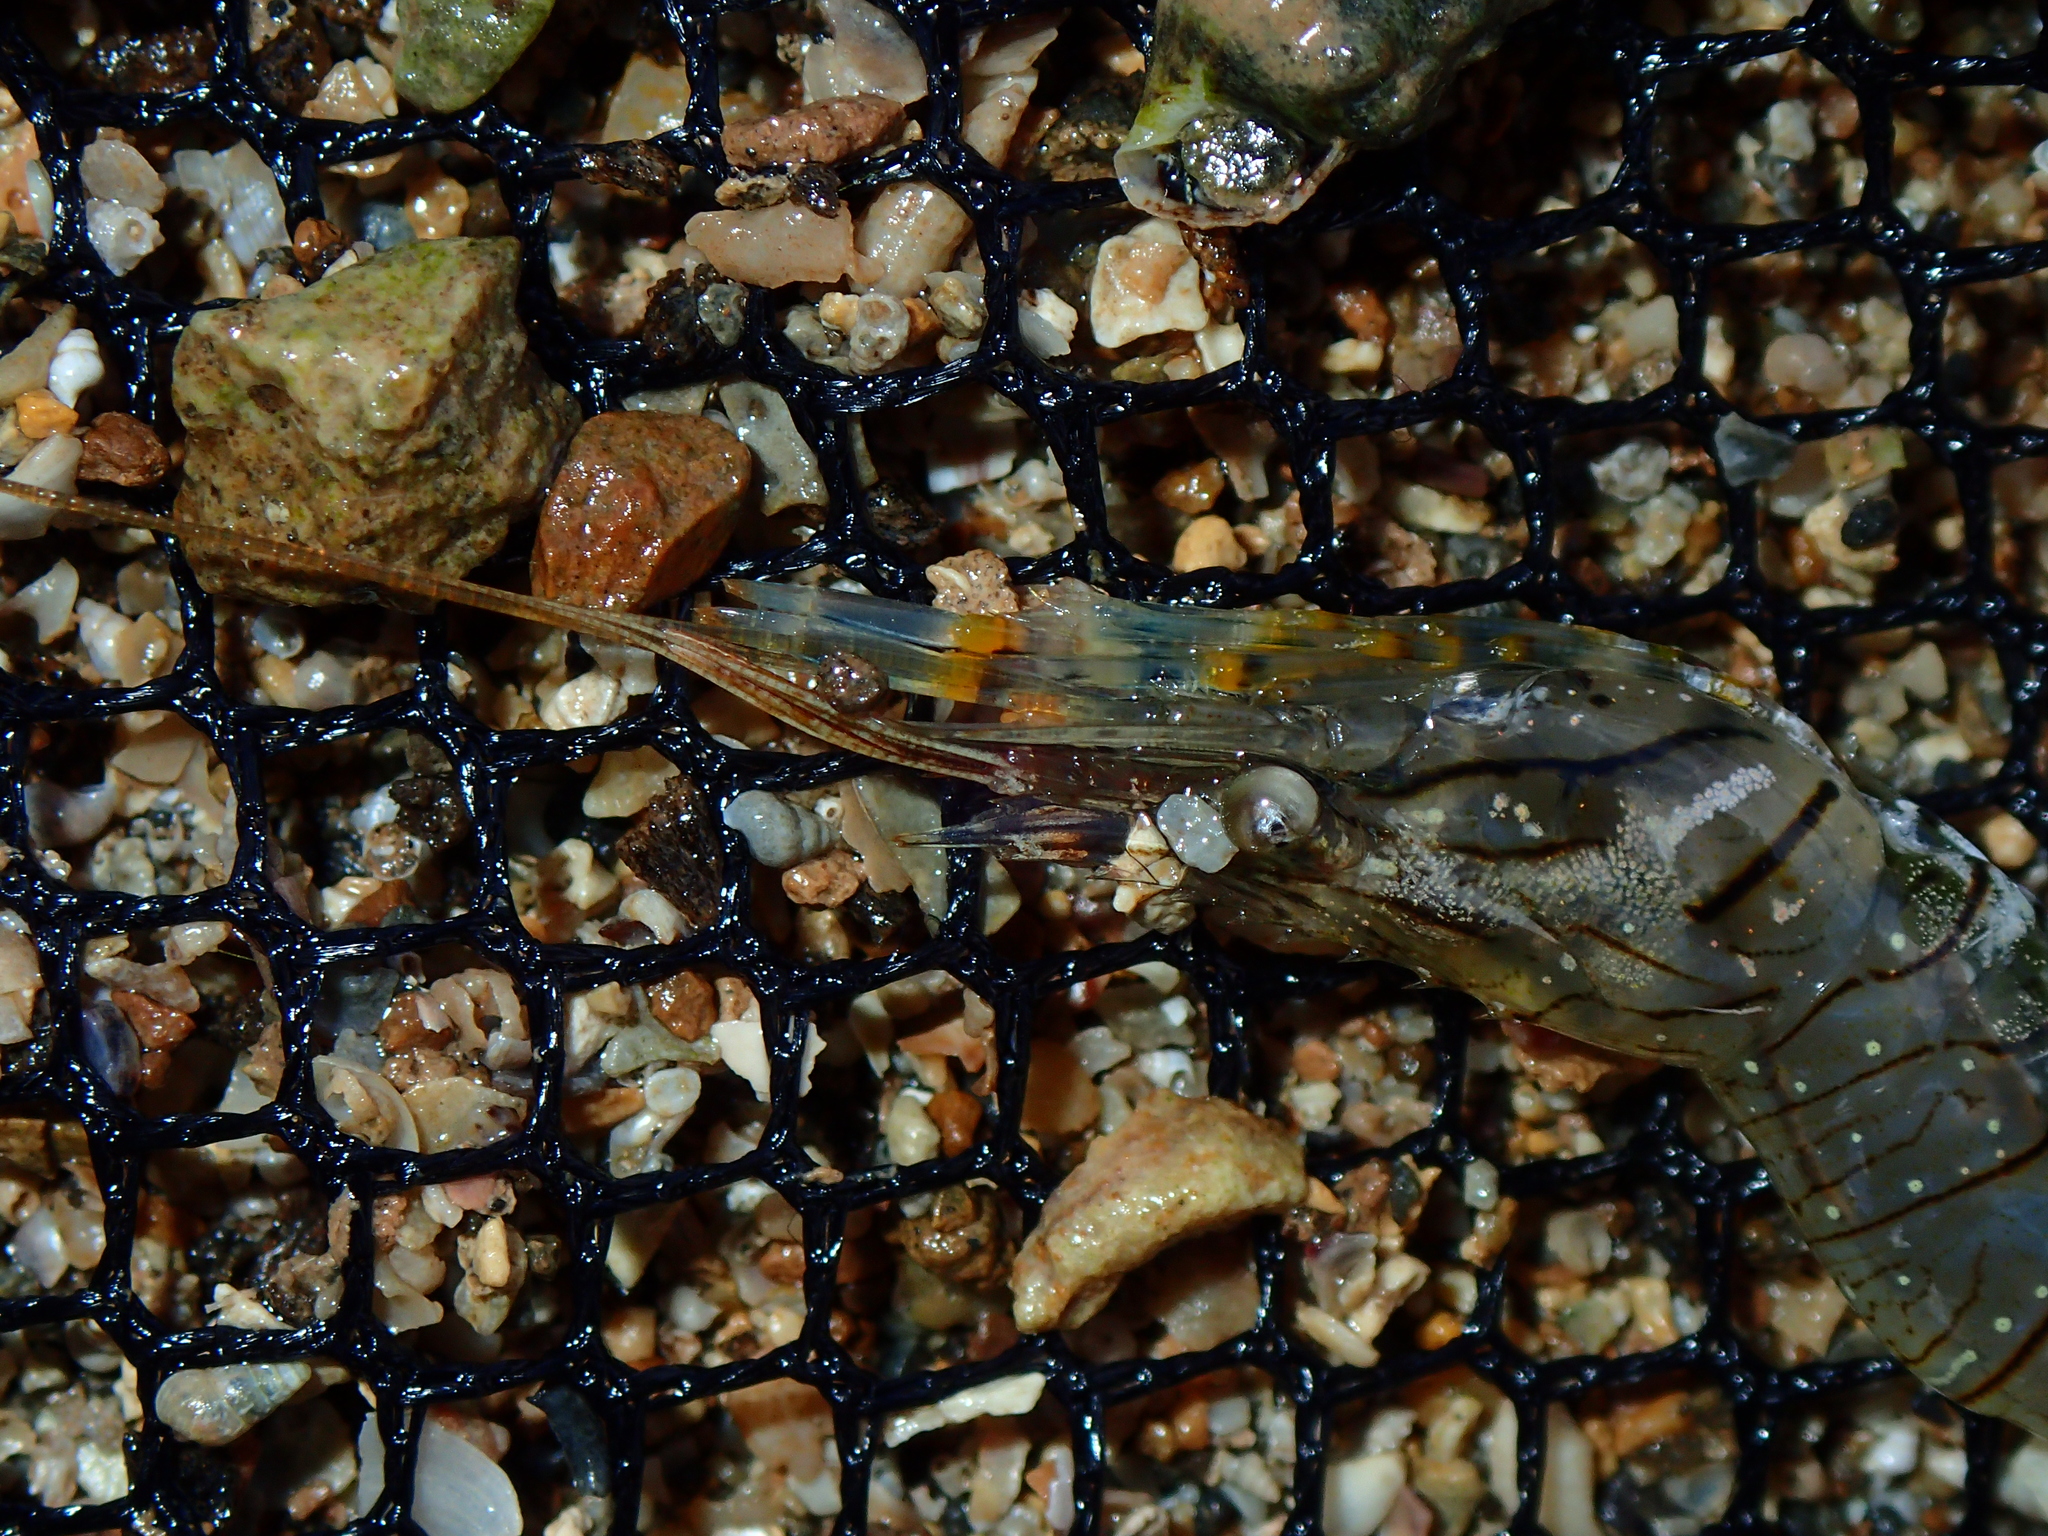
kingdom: Animalia
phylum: Arthropoda
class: Malacostraca
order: Decapoda
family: Palaemonidae
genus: Palaemon
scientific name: Palaemon elegans
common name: Grass prawm
